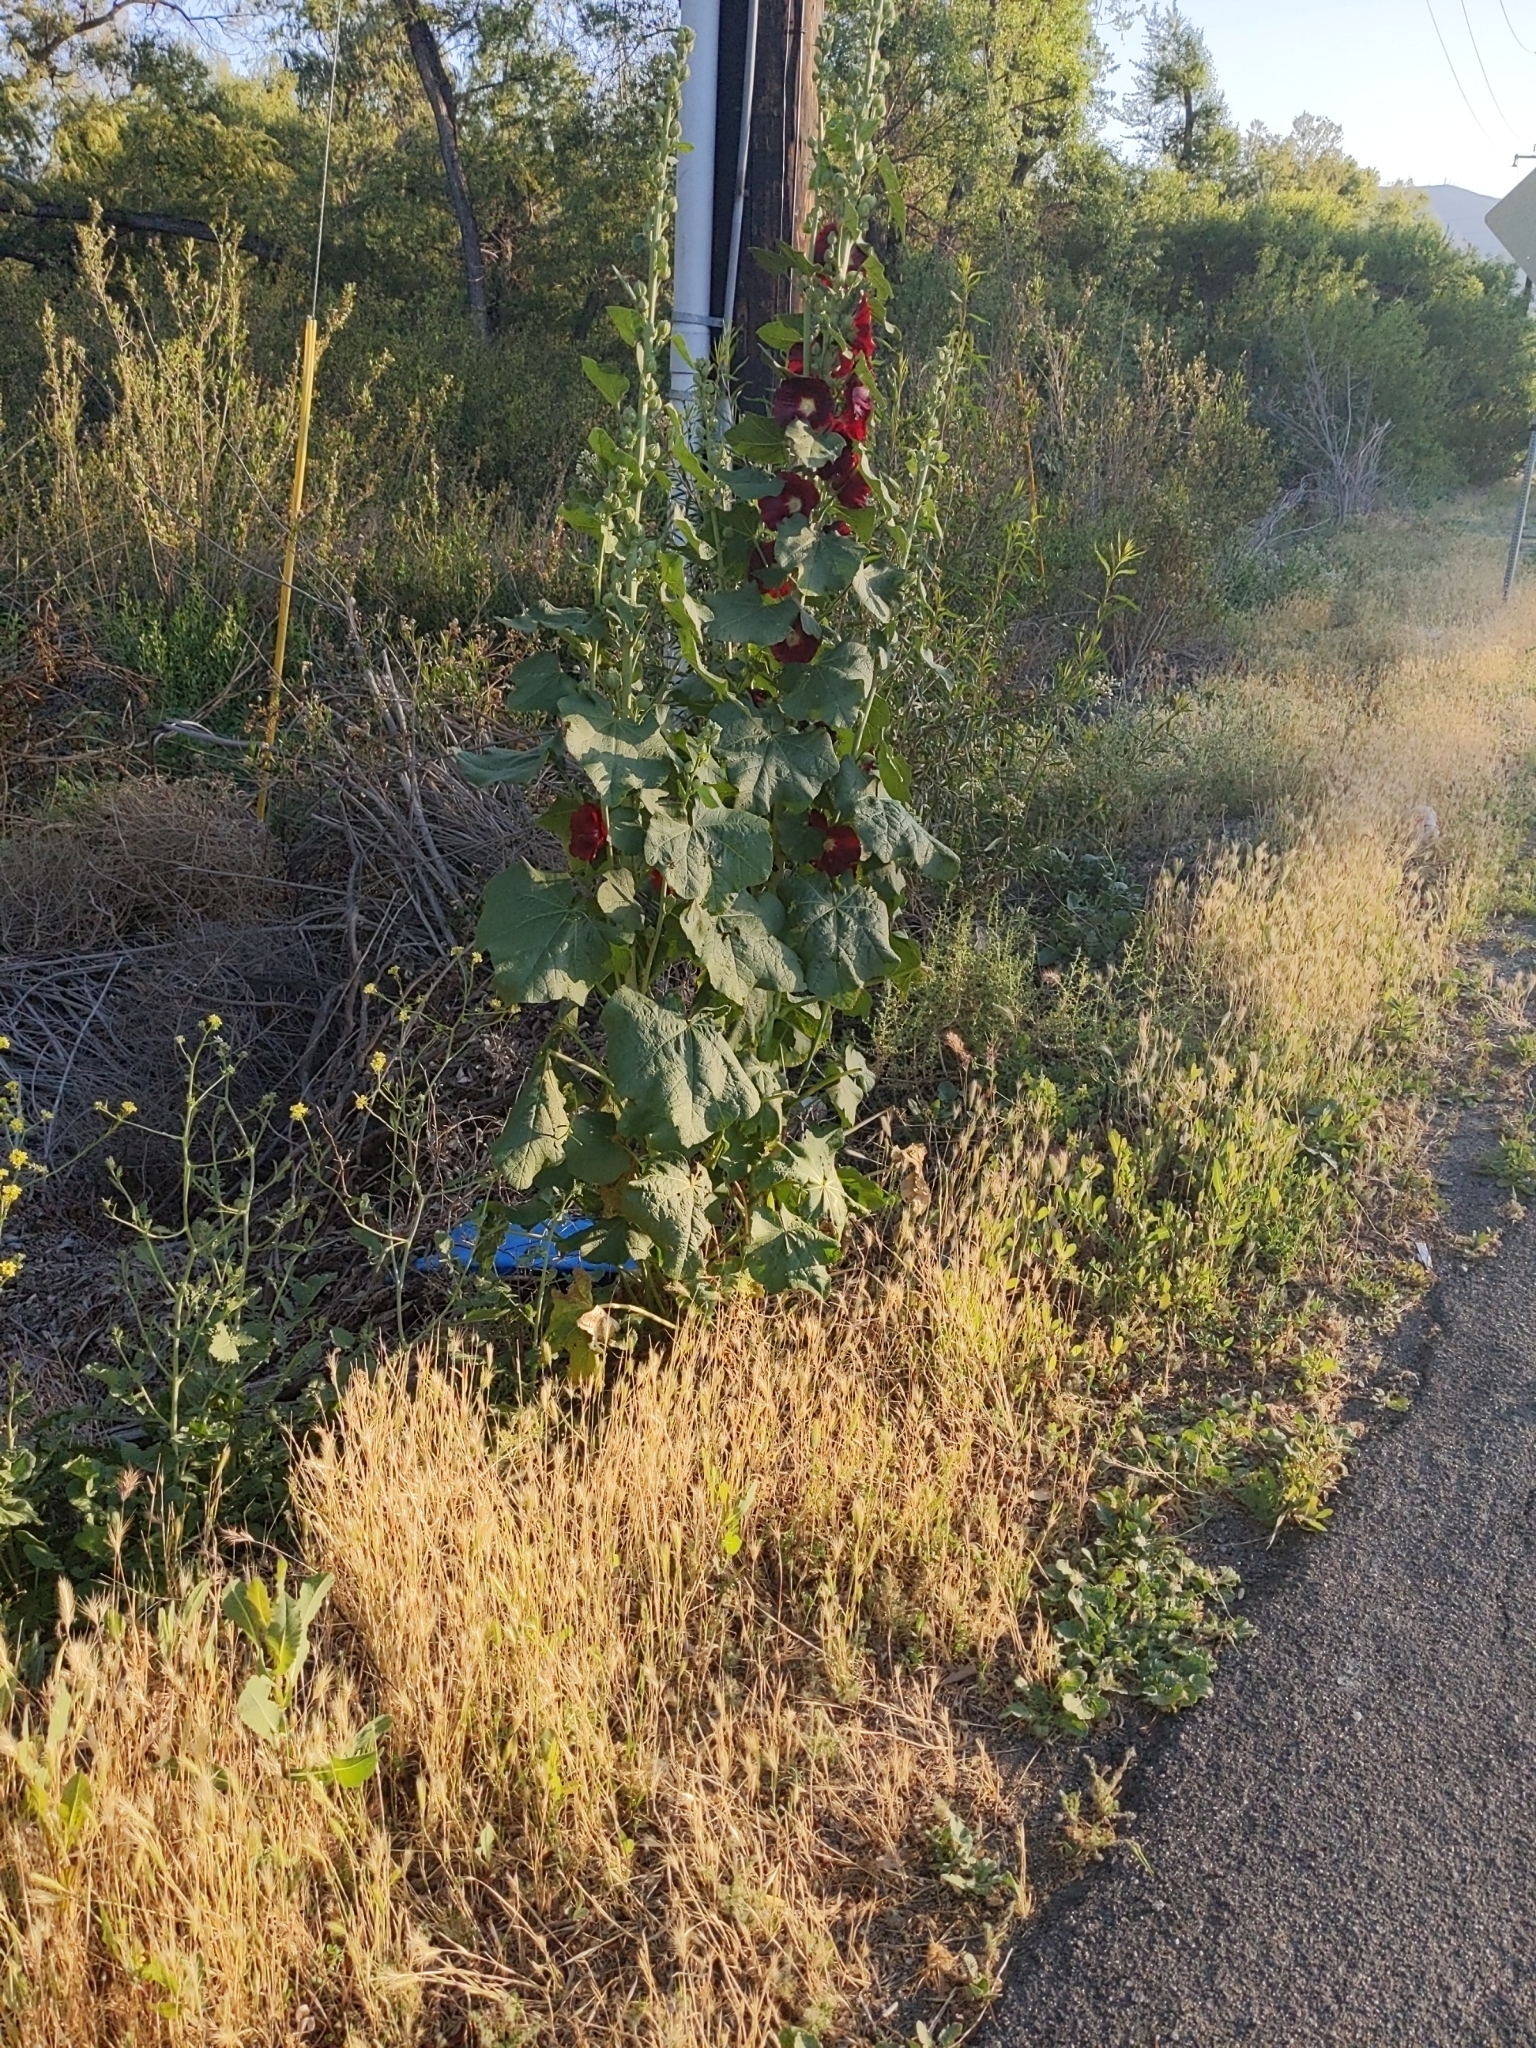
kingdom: Plantae
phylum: Tracheophyta
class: Magnoliopsida
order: Malvales
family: Malvaceae
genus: Alcea
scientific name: Alcea rosea
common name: Hollyhock
